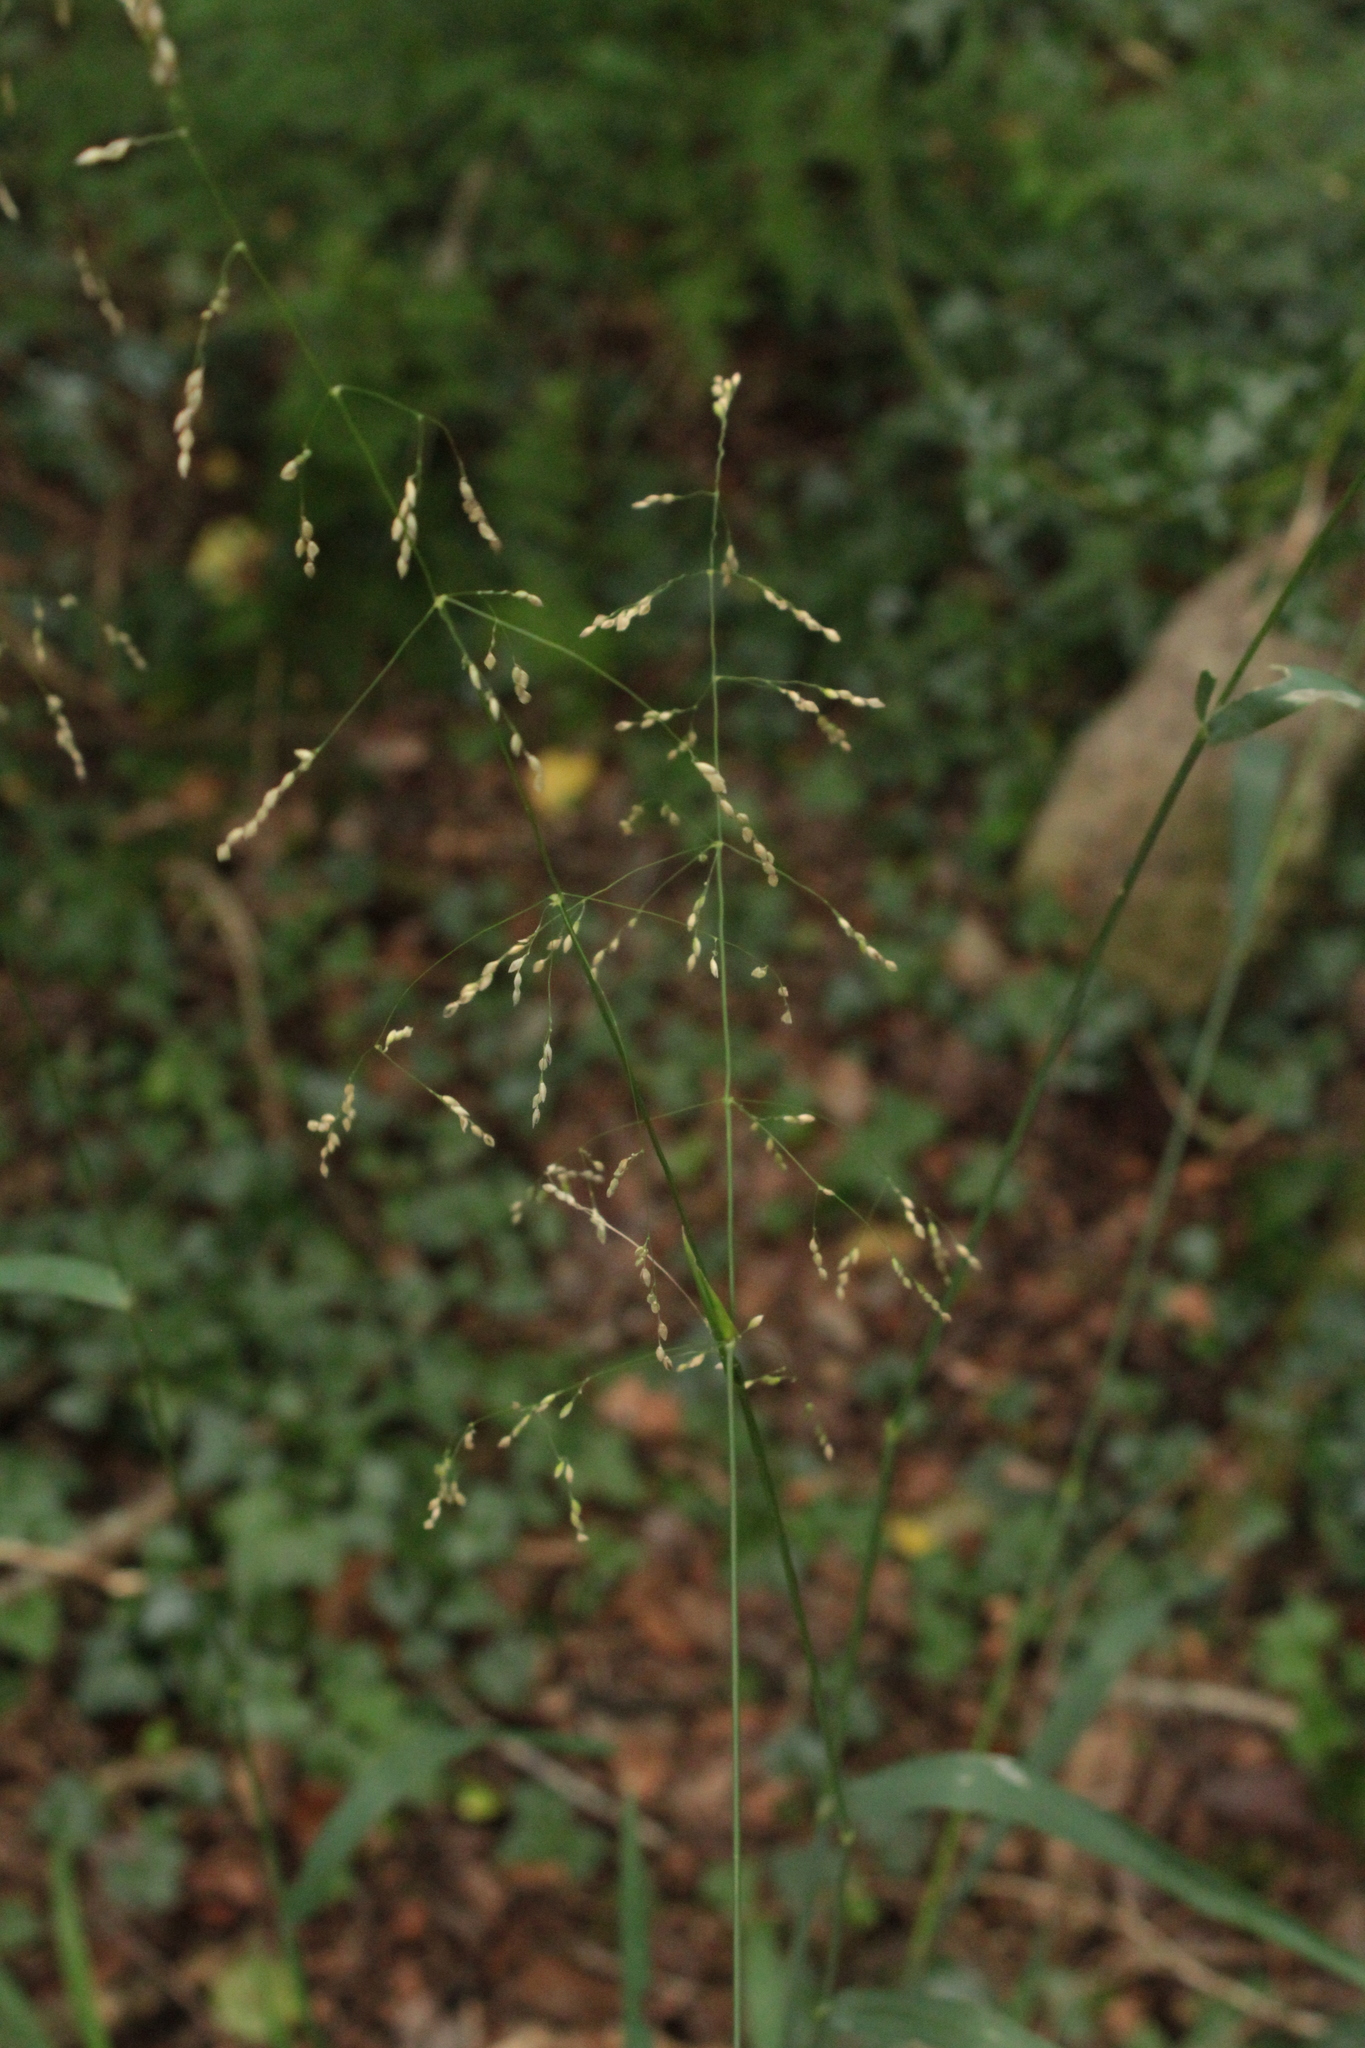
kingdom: Plantae
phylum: Tracheophyta
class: Liliopsida
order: Poales
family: Poaceae
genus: Milium
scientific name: Milium effusum
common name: Wood millet
